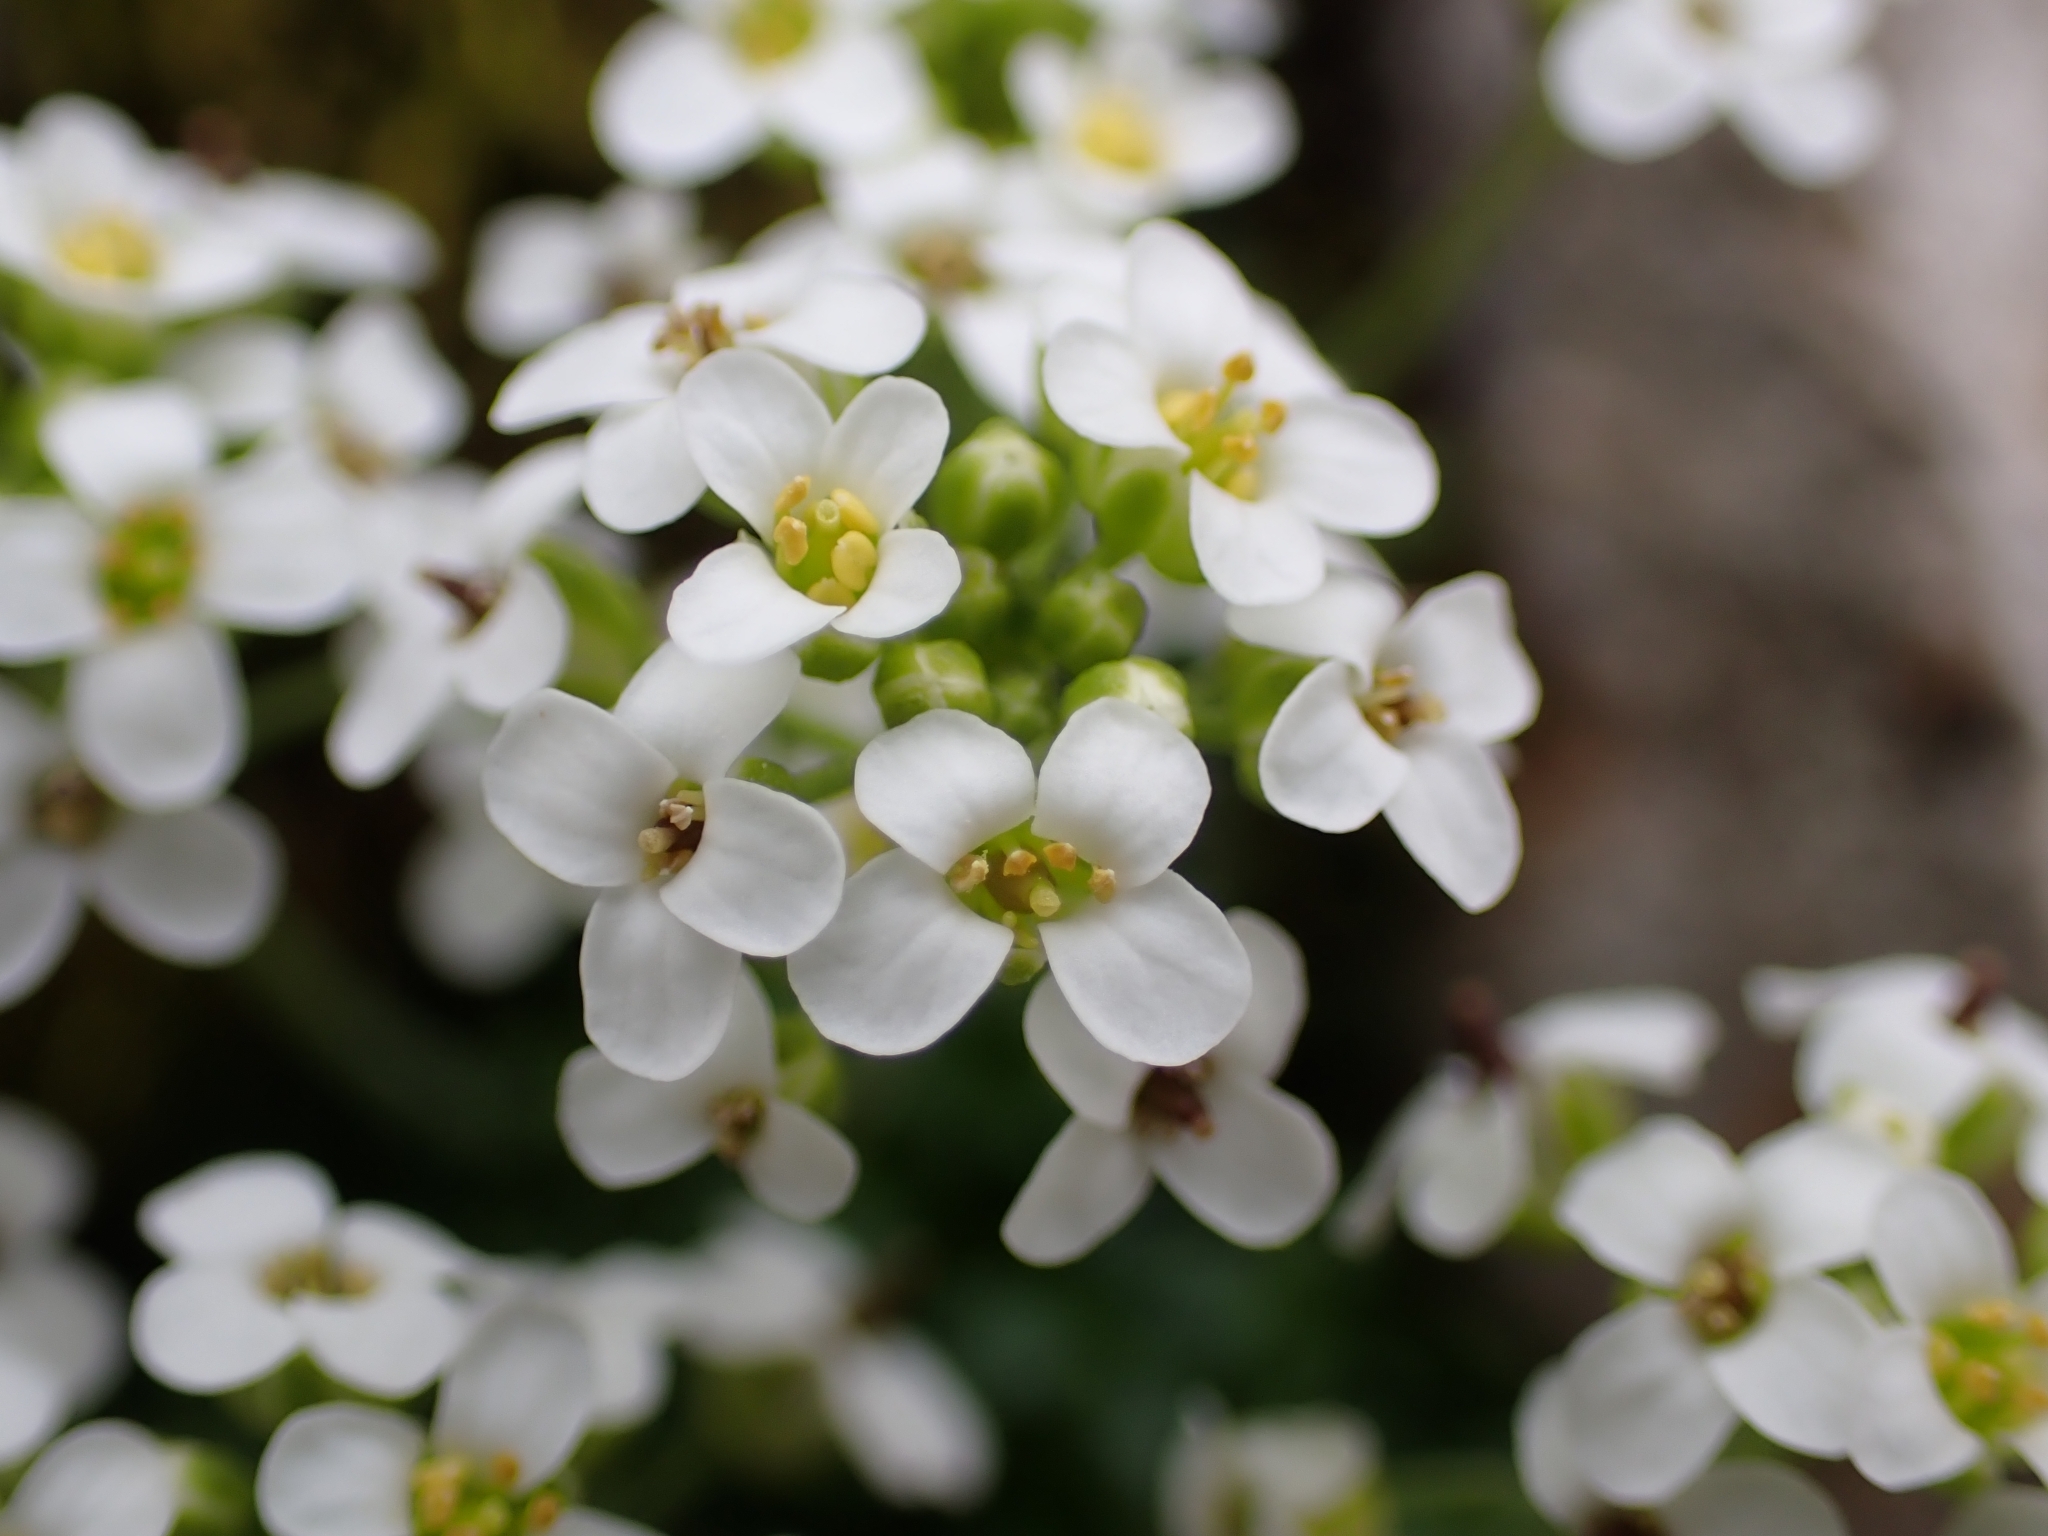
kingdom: Plantae
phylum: Tracheophyta
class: Magnoliopsida
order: Brassicales
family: Brassicaceae
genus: Hornungia
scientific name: Hornungia alpina
